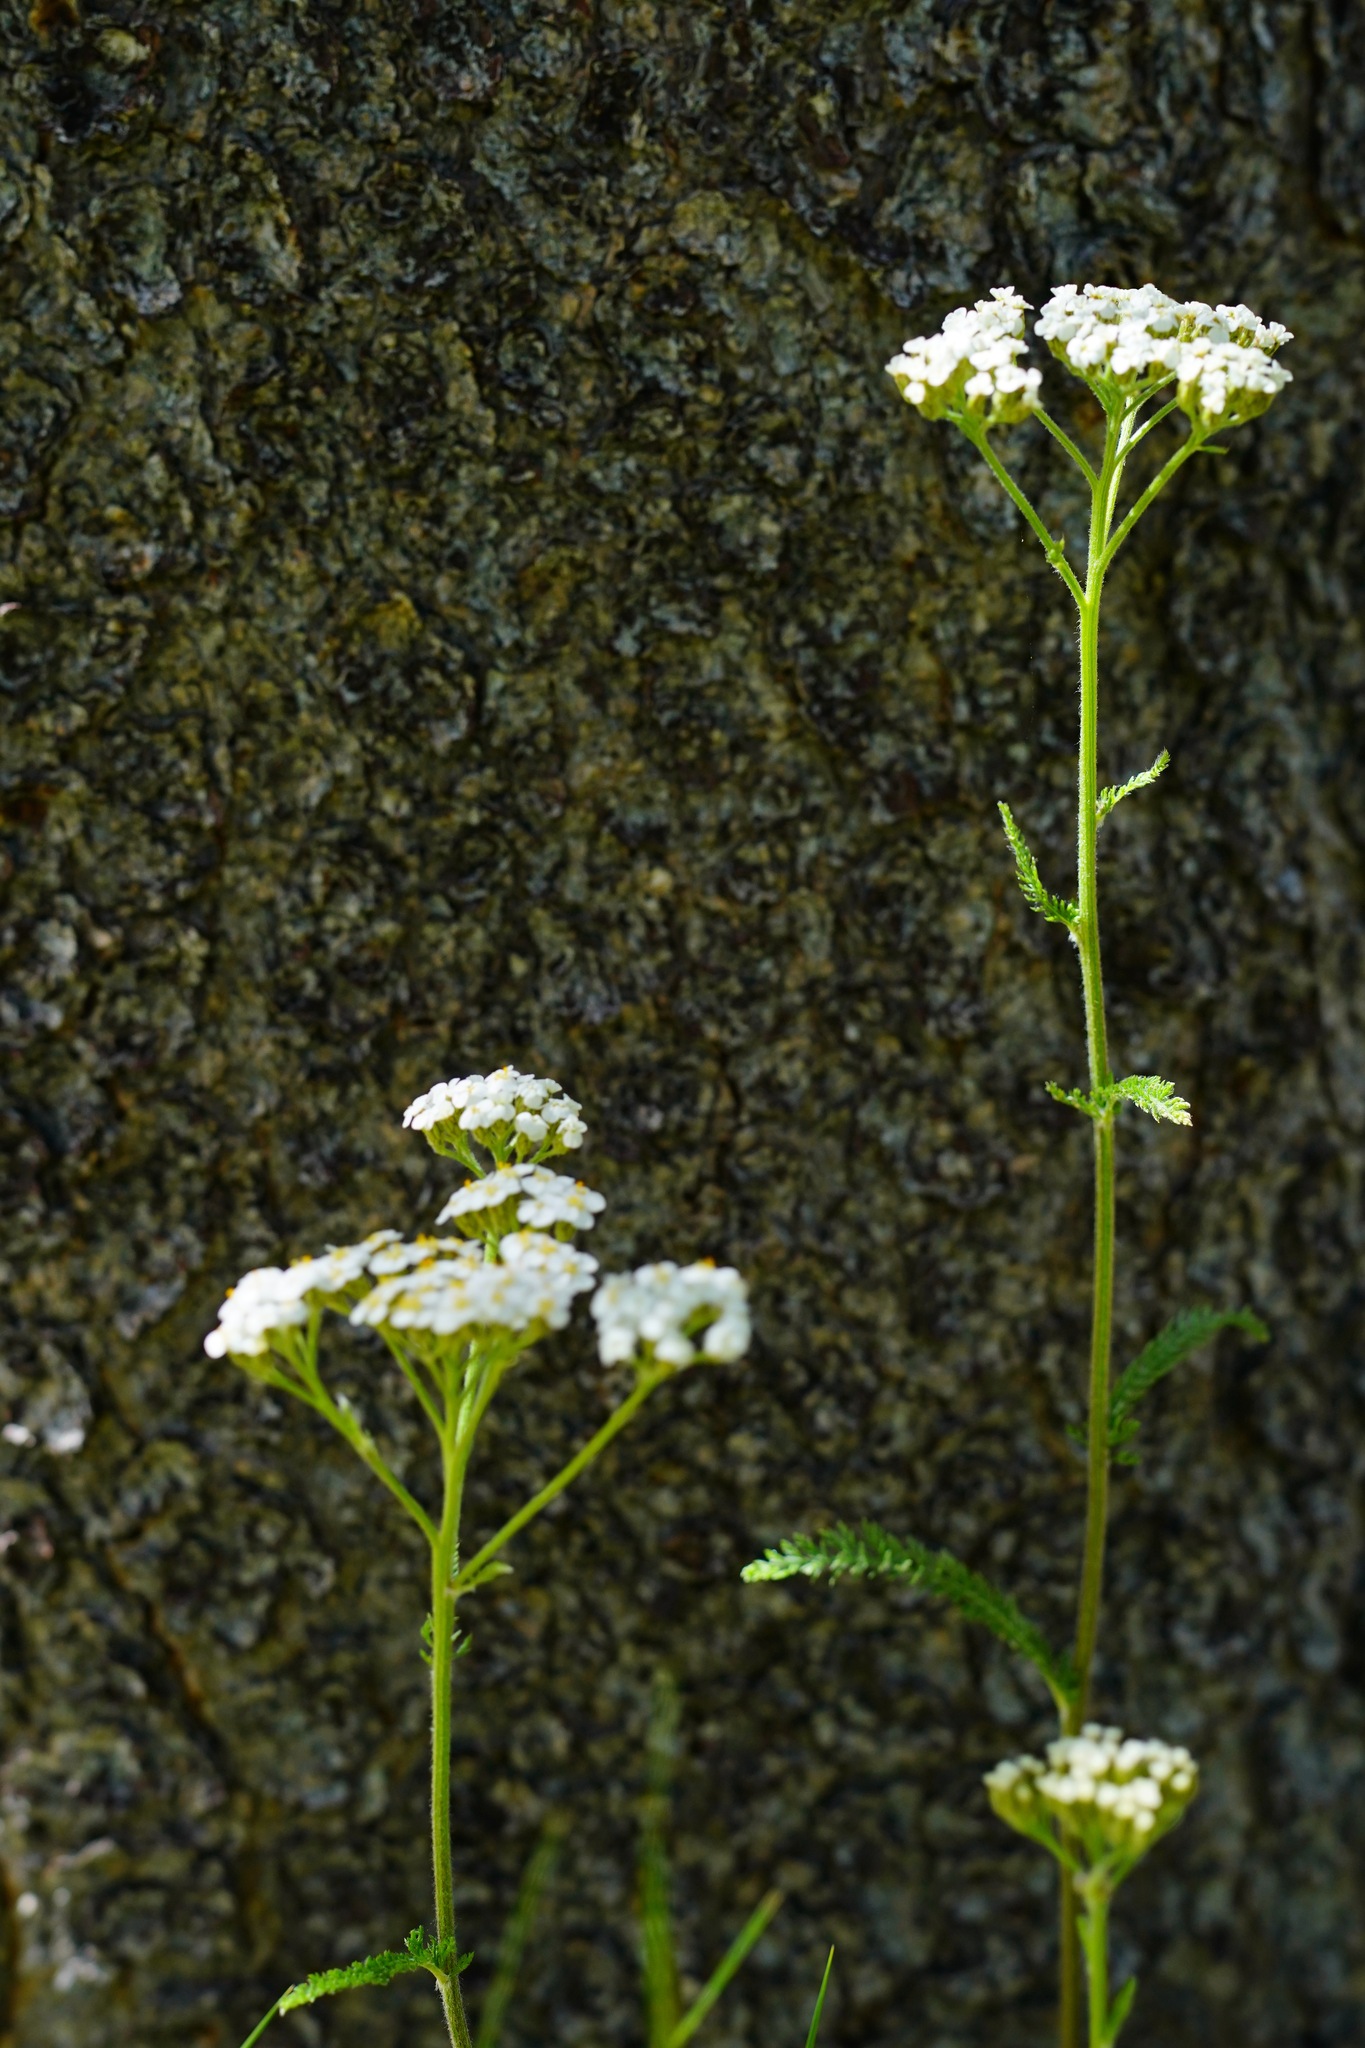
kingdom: Plantae
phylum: Tracheophyta
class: Magnoliopsida
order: Asterales
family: Asteraceae
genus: Achillea
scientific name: Achillea millefolium
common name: Yarrow
